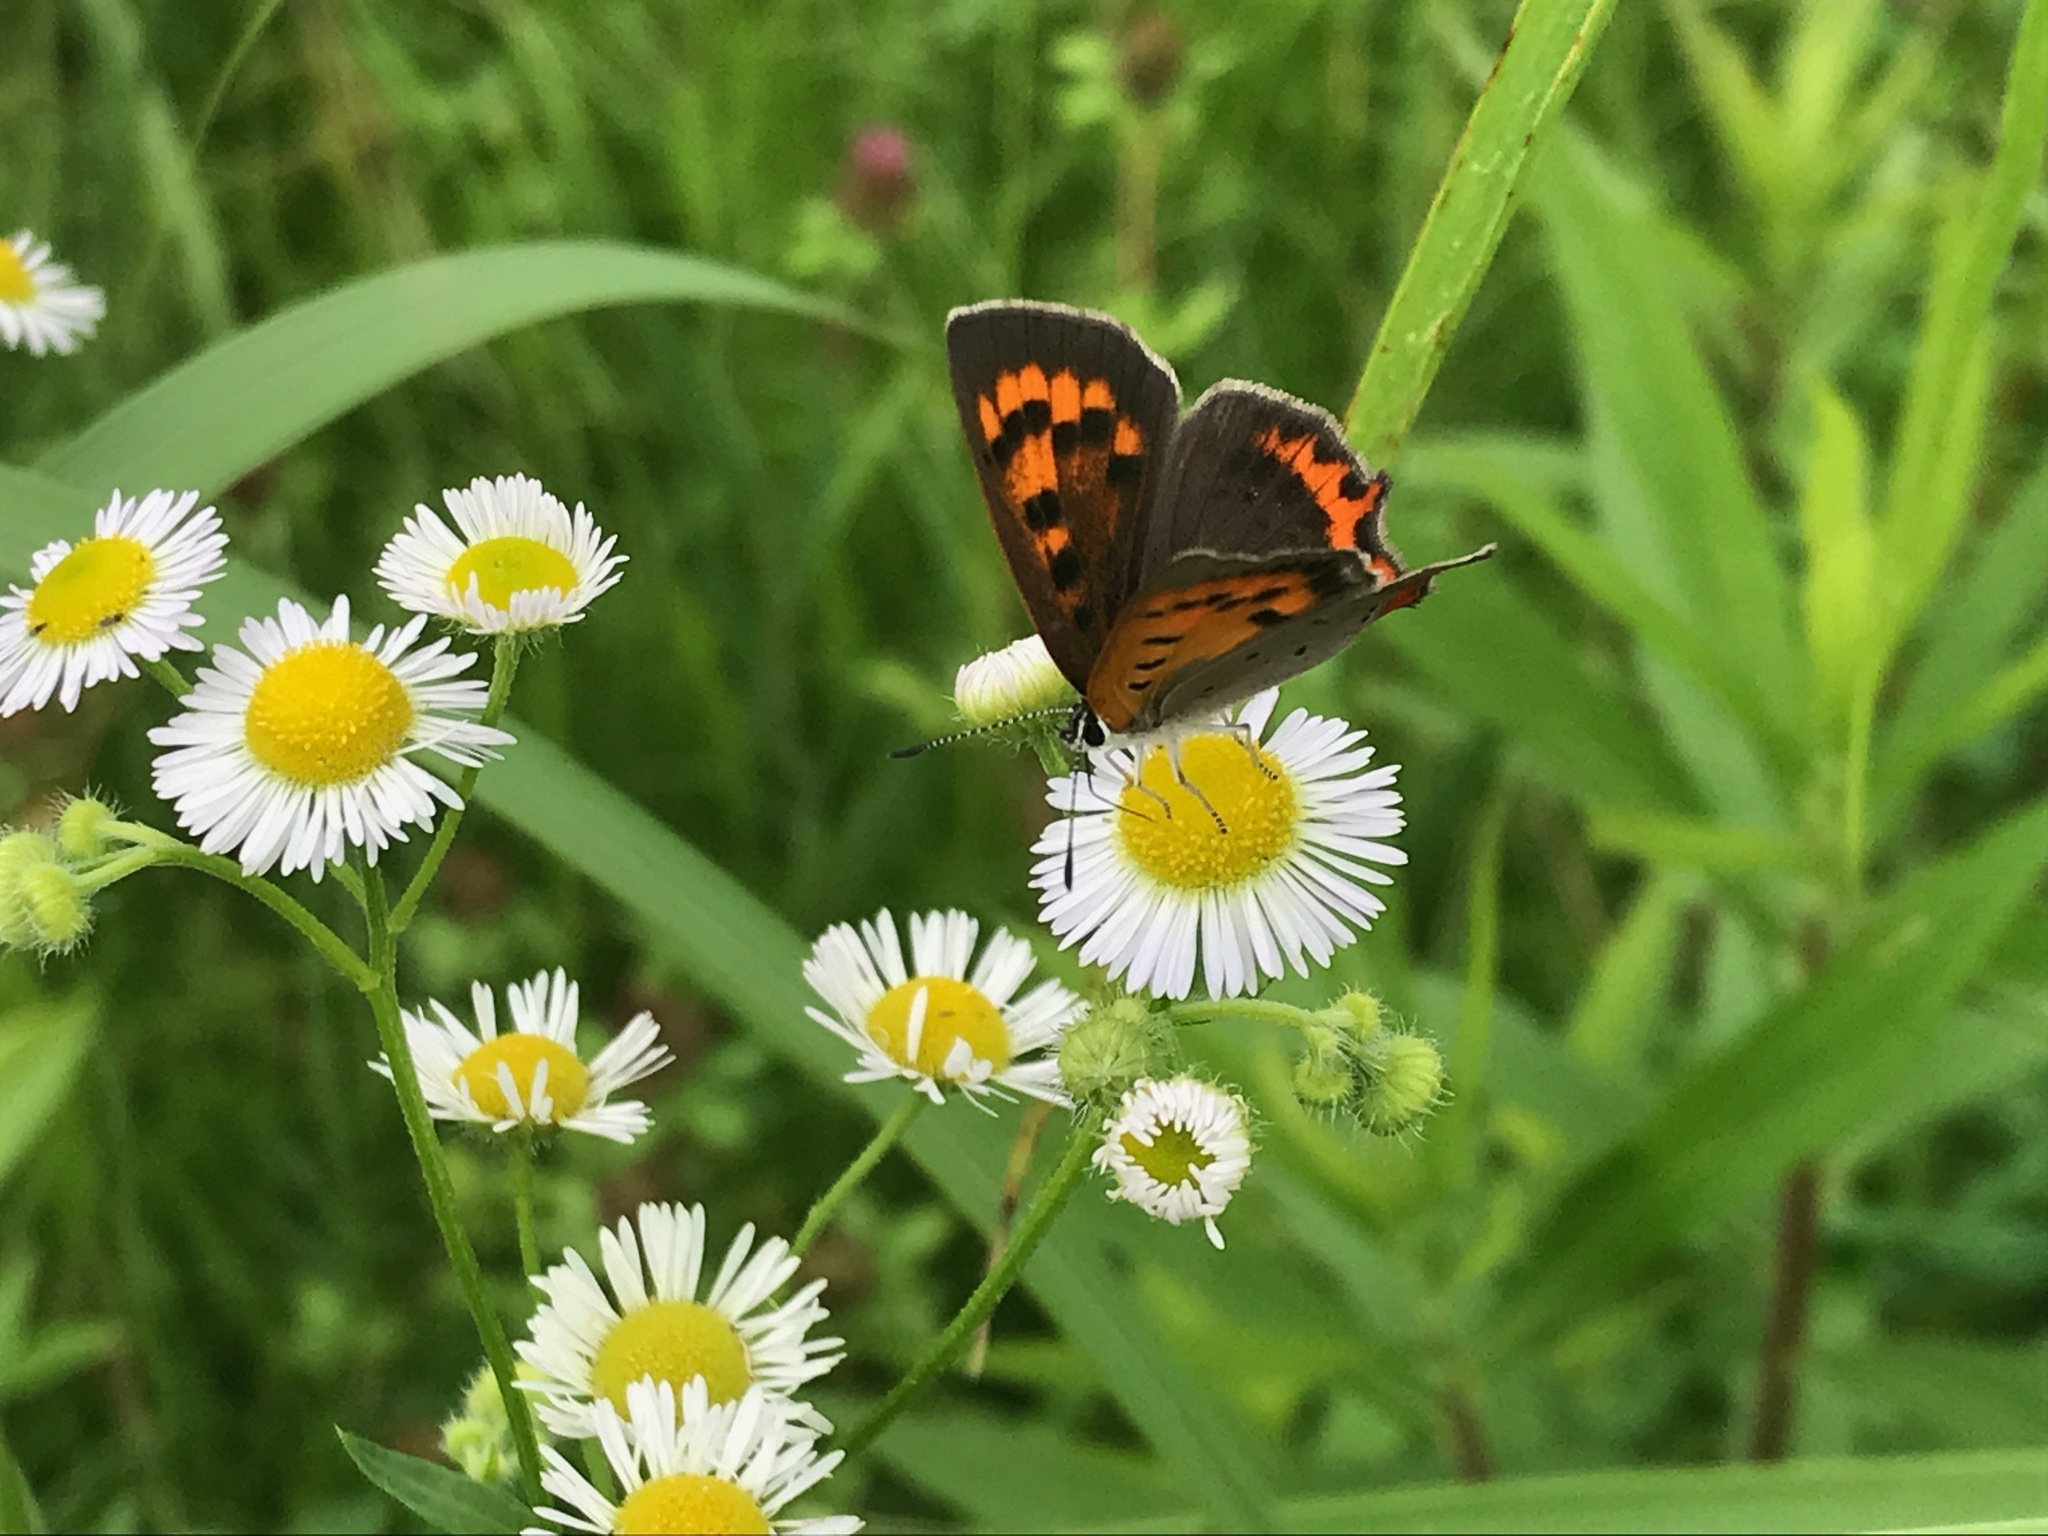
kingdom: Animalia
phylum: Arthropoda
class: Insecta
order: Lepidoptera
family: Lycaenidae
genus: Lycaena
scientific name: Lycaena phlaeas
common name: Small copper
